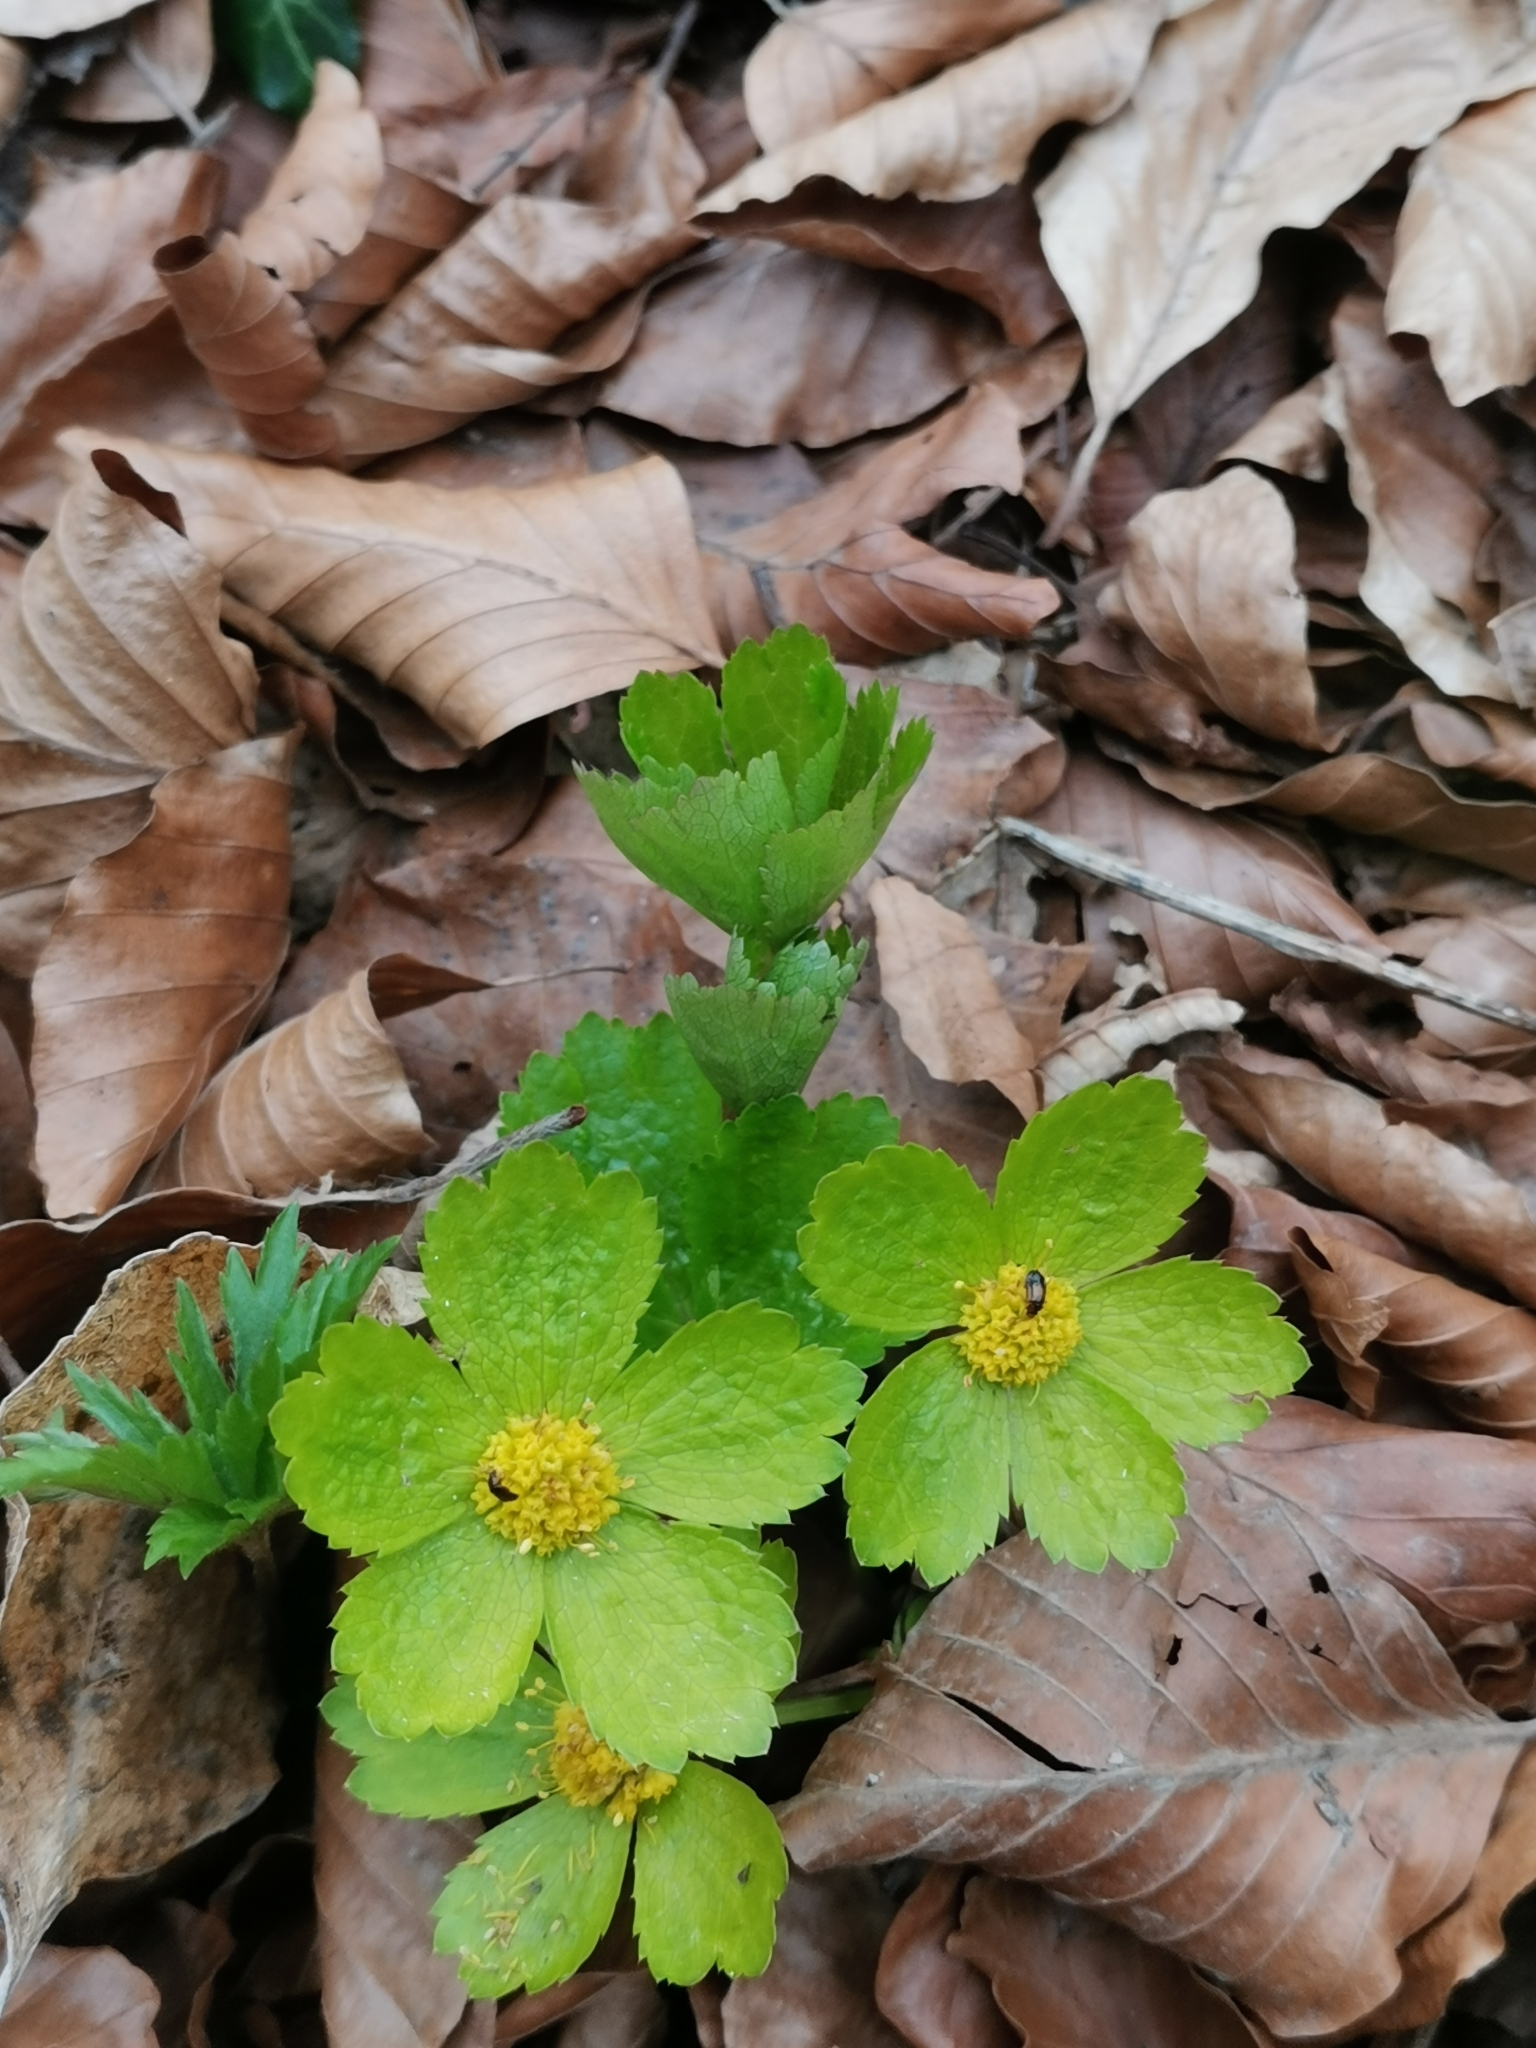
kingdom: Plantae
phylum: Tracheophyta
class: Magnoliopsida
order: Apiales
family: Apiaceae
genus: Sanicula
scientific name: Sanicula epipactis
